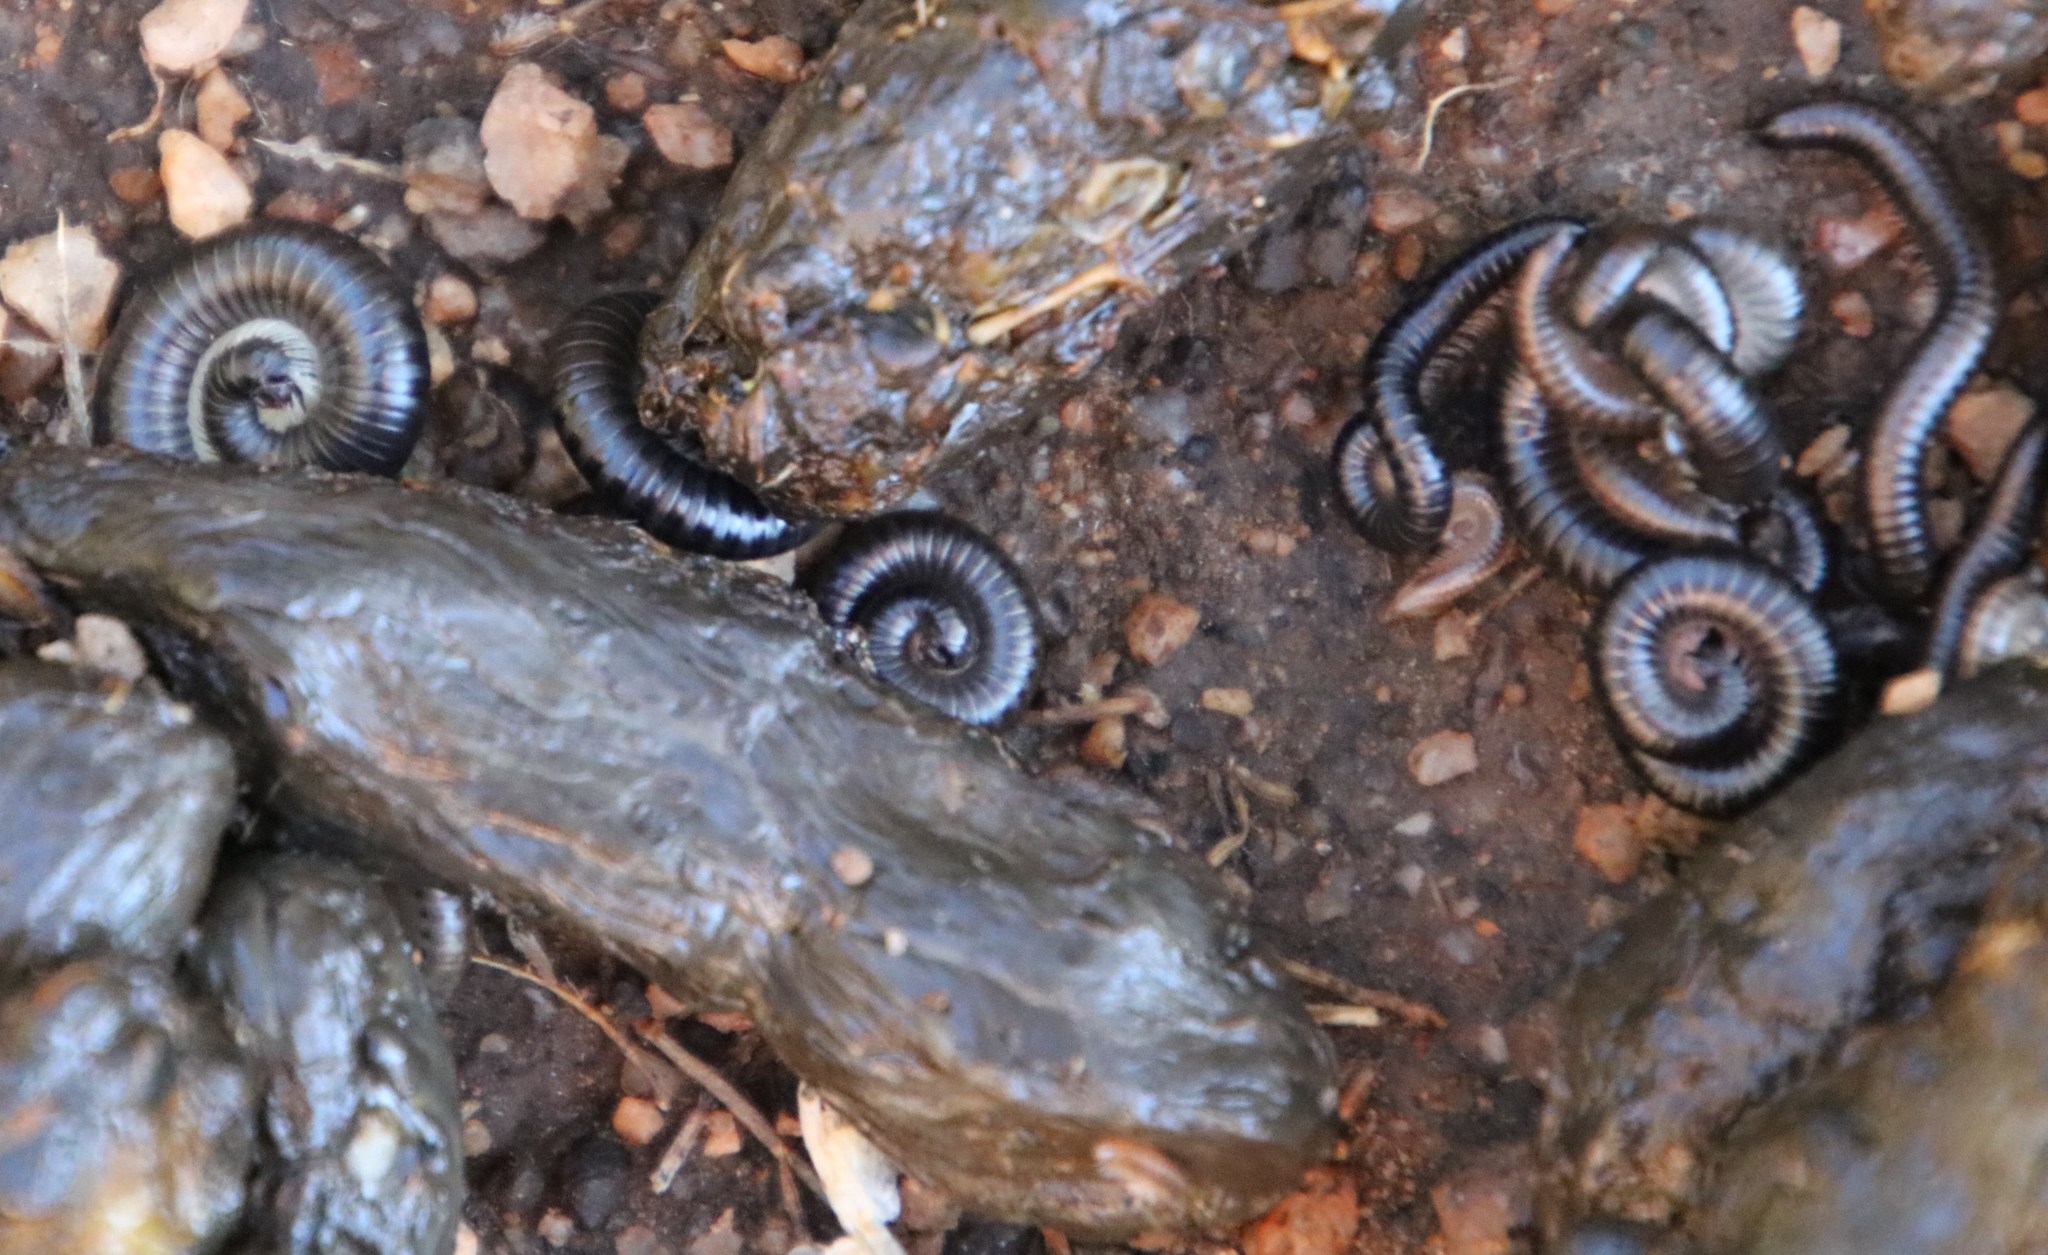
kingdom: Animalia
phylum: Chordata
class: Mammalia
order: Rodentia
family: Hystricidae
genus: Hystrix
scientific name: Hystrix africaeaustralis
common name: Cape porcupine
